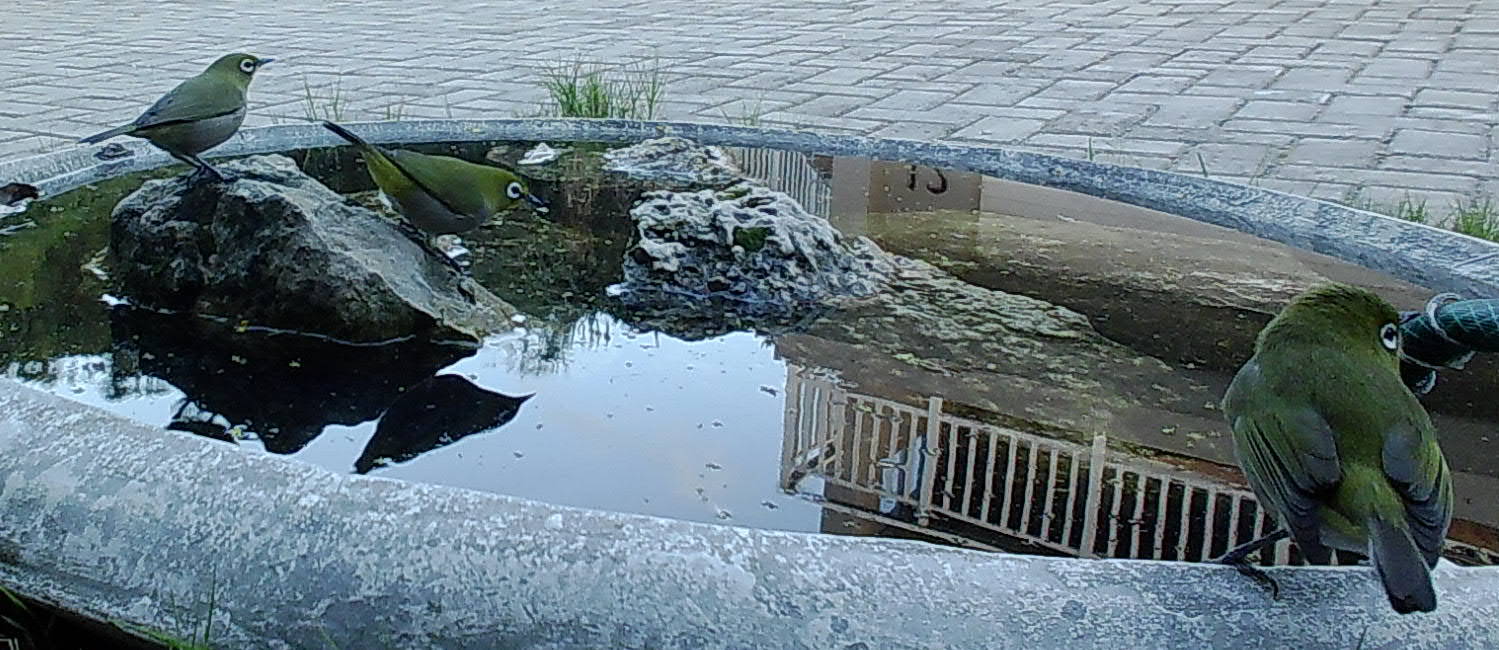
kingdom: Animalia
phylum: Chordata
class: Aves
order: Passeriformes
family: Zosteropidae
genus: Zosterops
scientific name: Zosterops virens
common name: Cape white-eye
